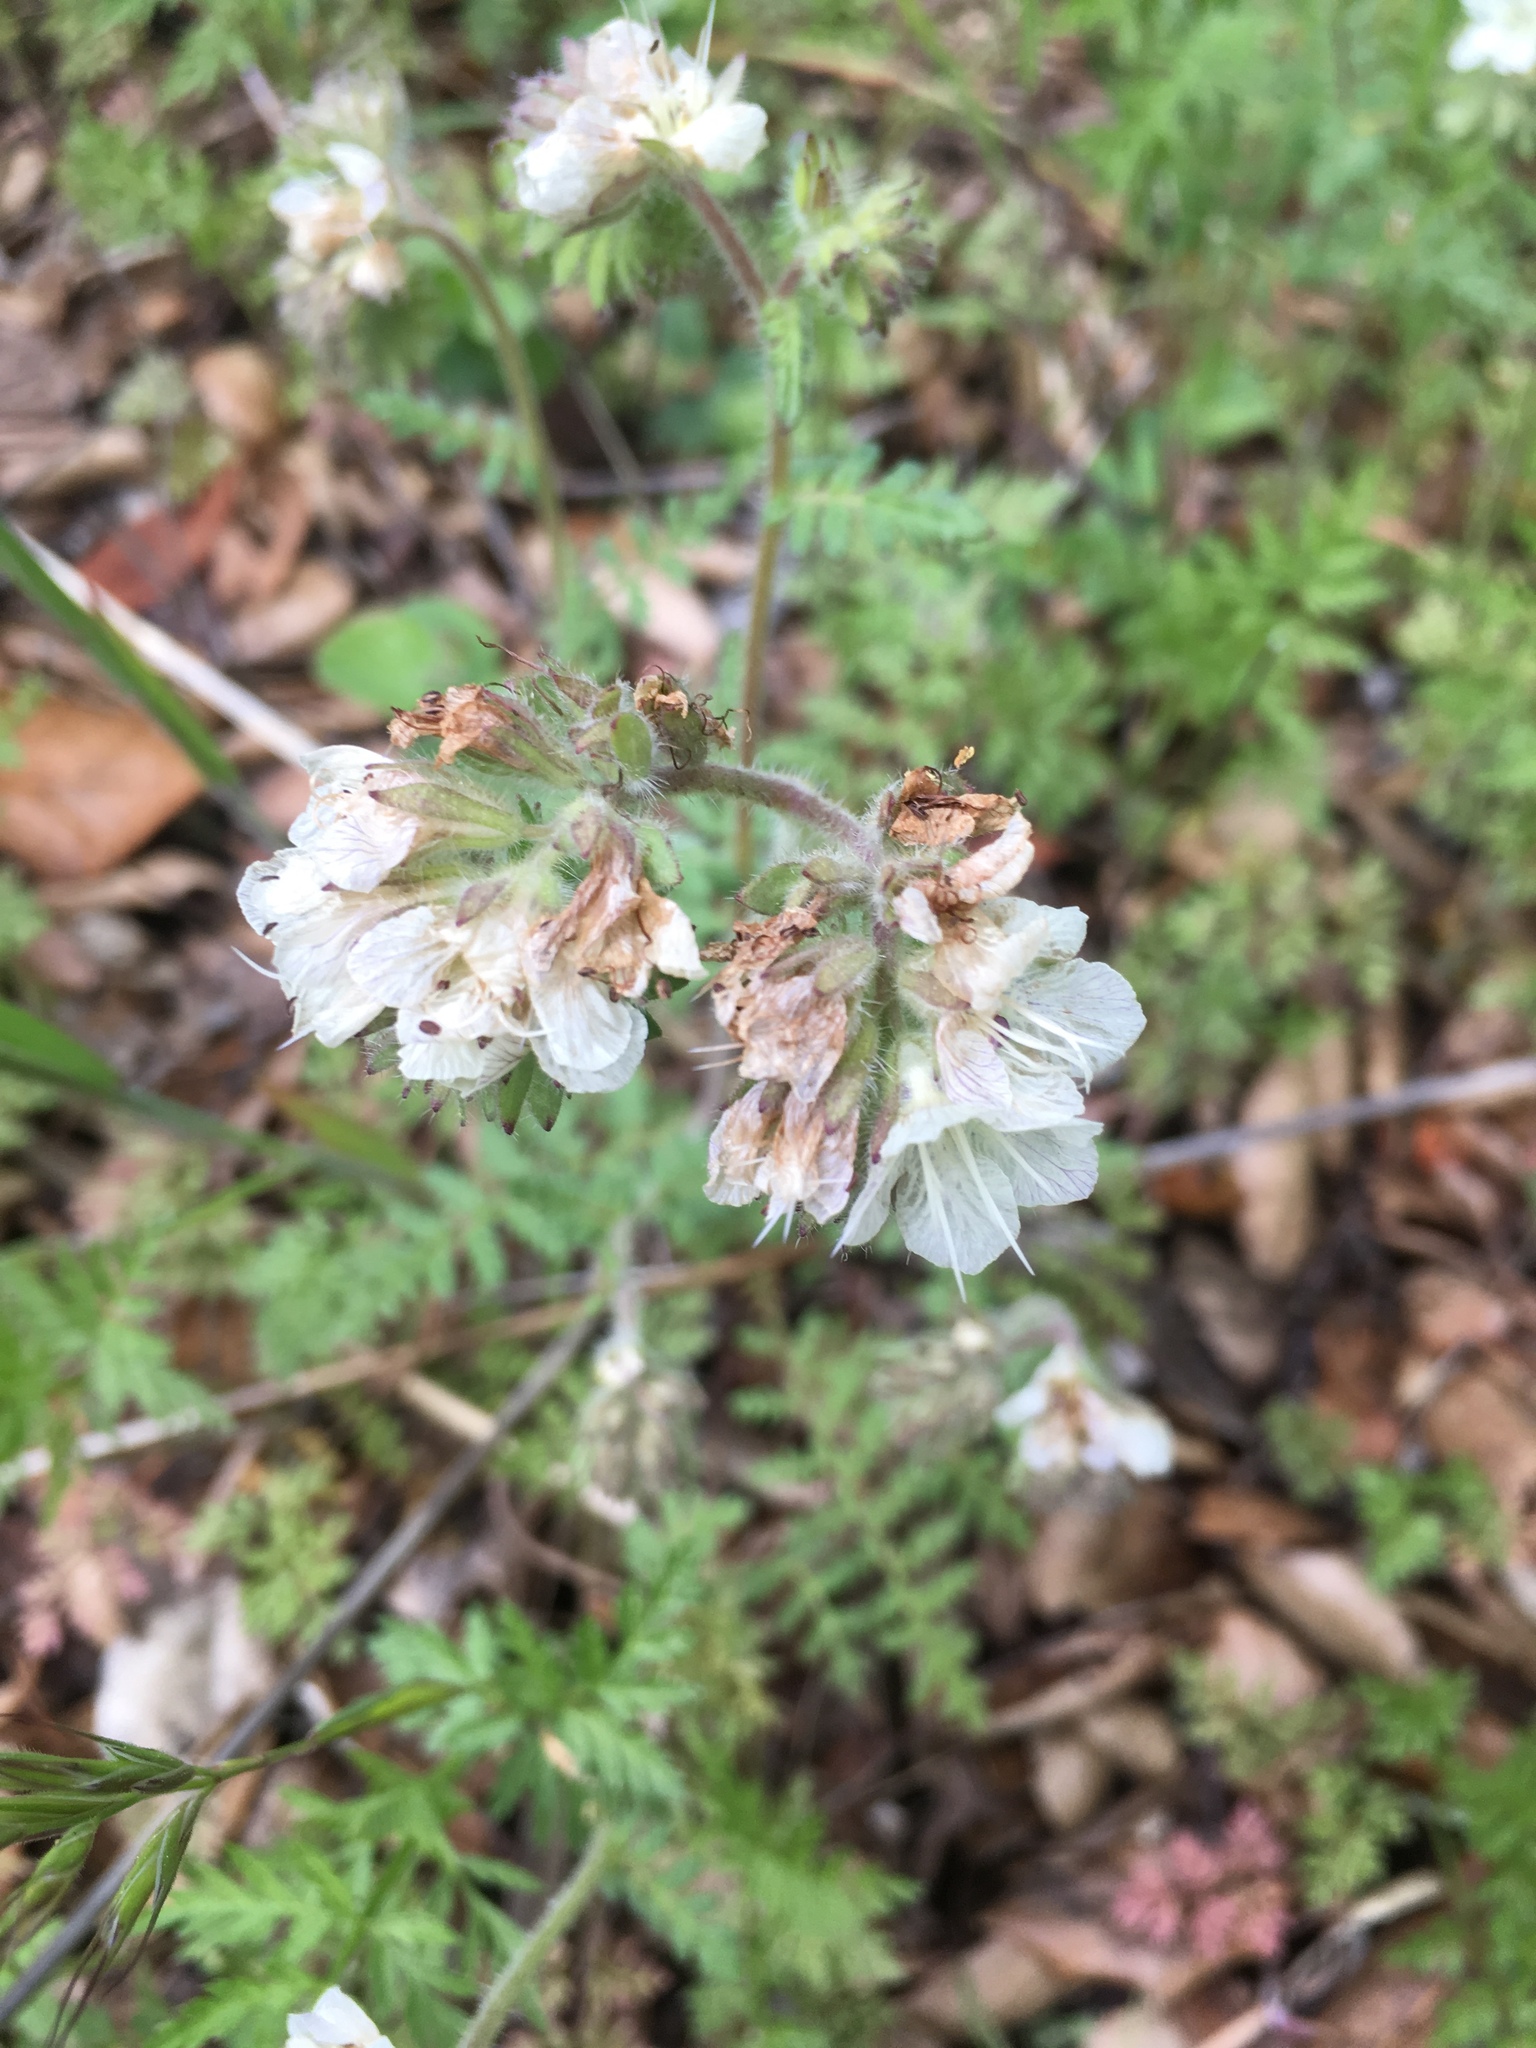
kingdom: Plantae
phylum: Tracheophyta
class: Magnoliopsida
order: Boraginales
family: Hydrophyllaceae
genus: Phacelia
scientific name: Phacelia distans
